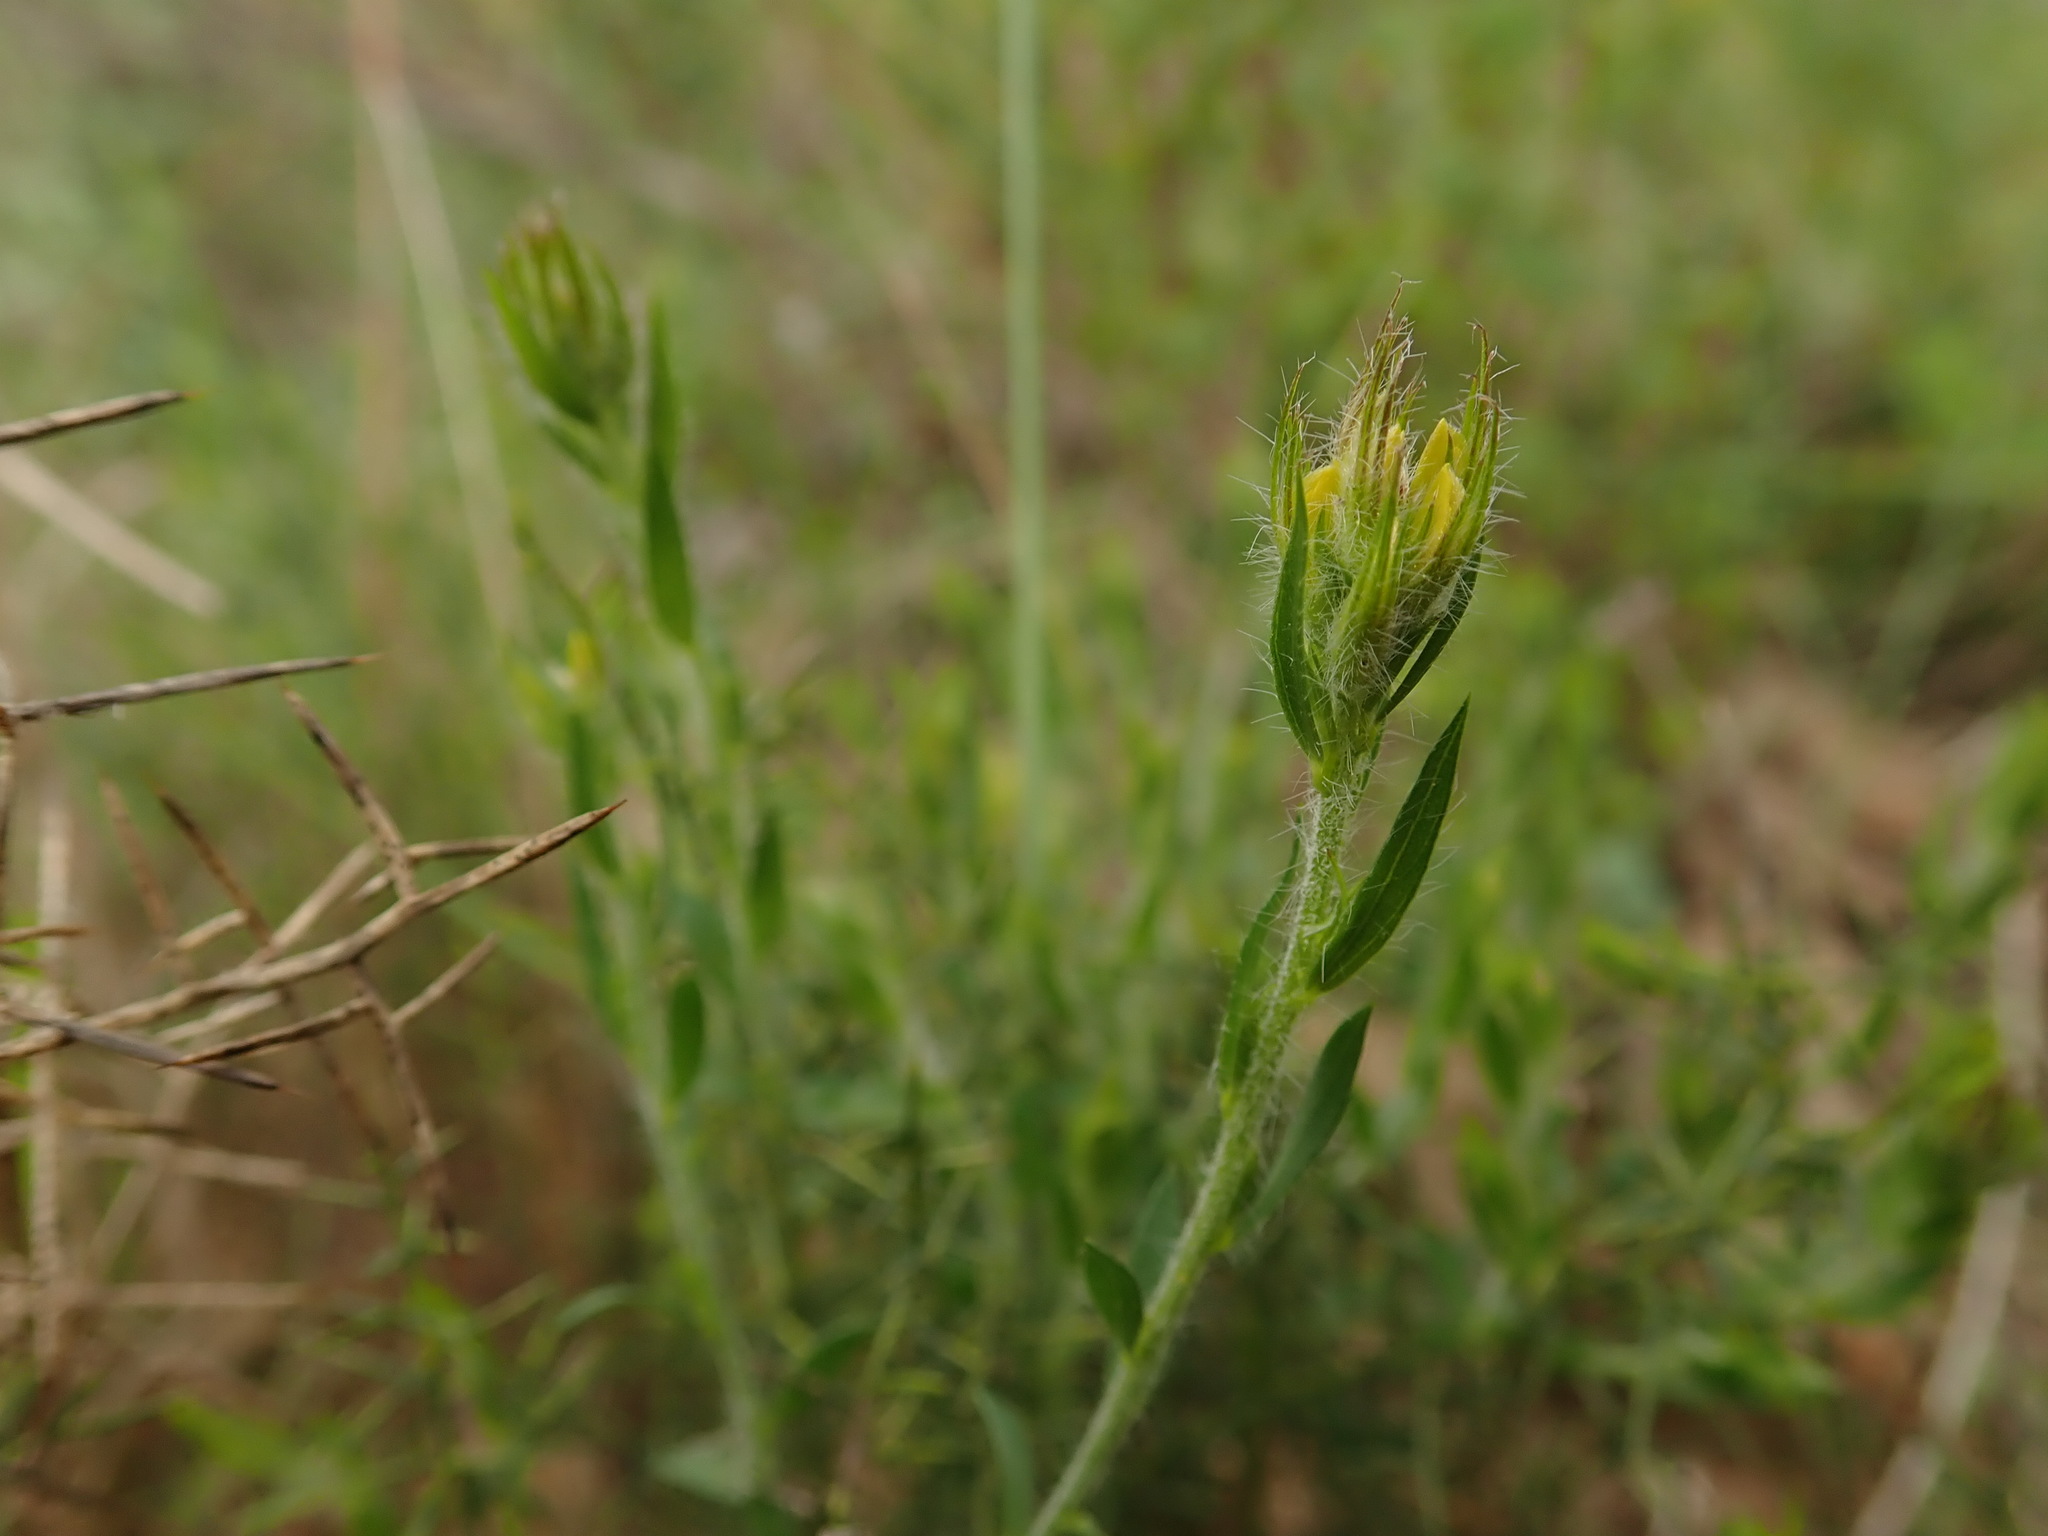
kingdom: Plantae
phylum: Tracheophyta
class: Magnoliopsida
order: Fabales
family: Fabaceae
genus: Genista
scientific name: Genista tournefortii
